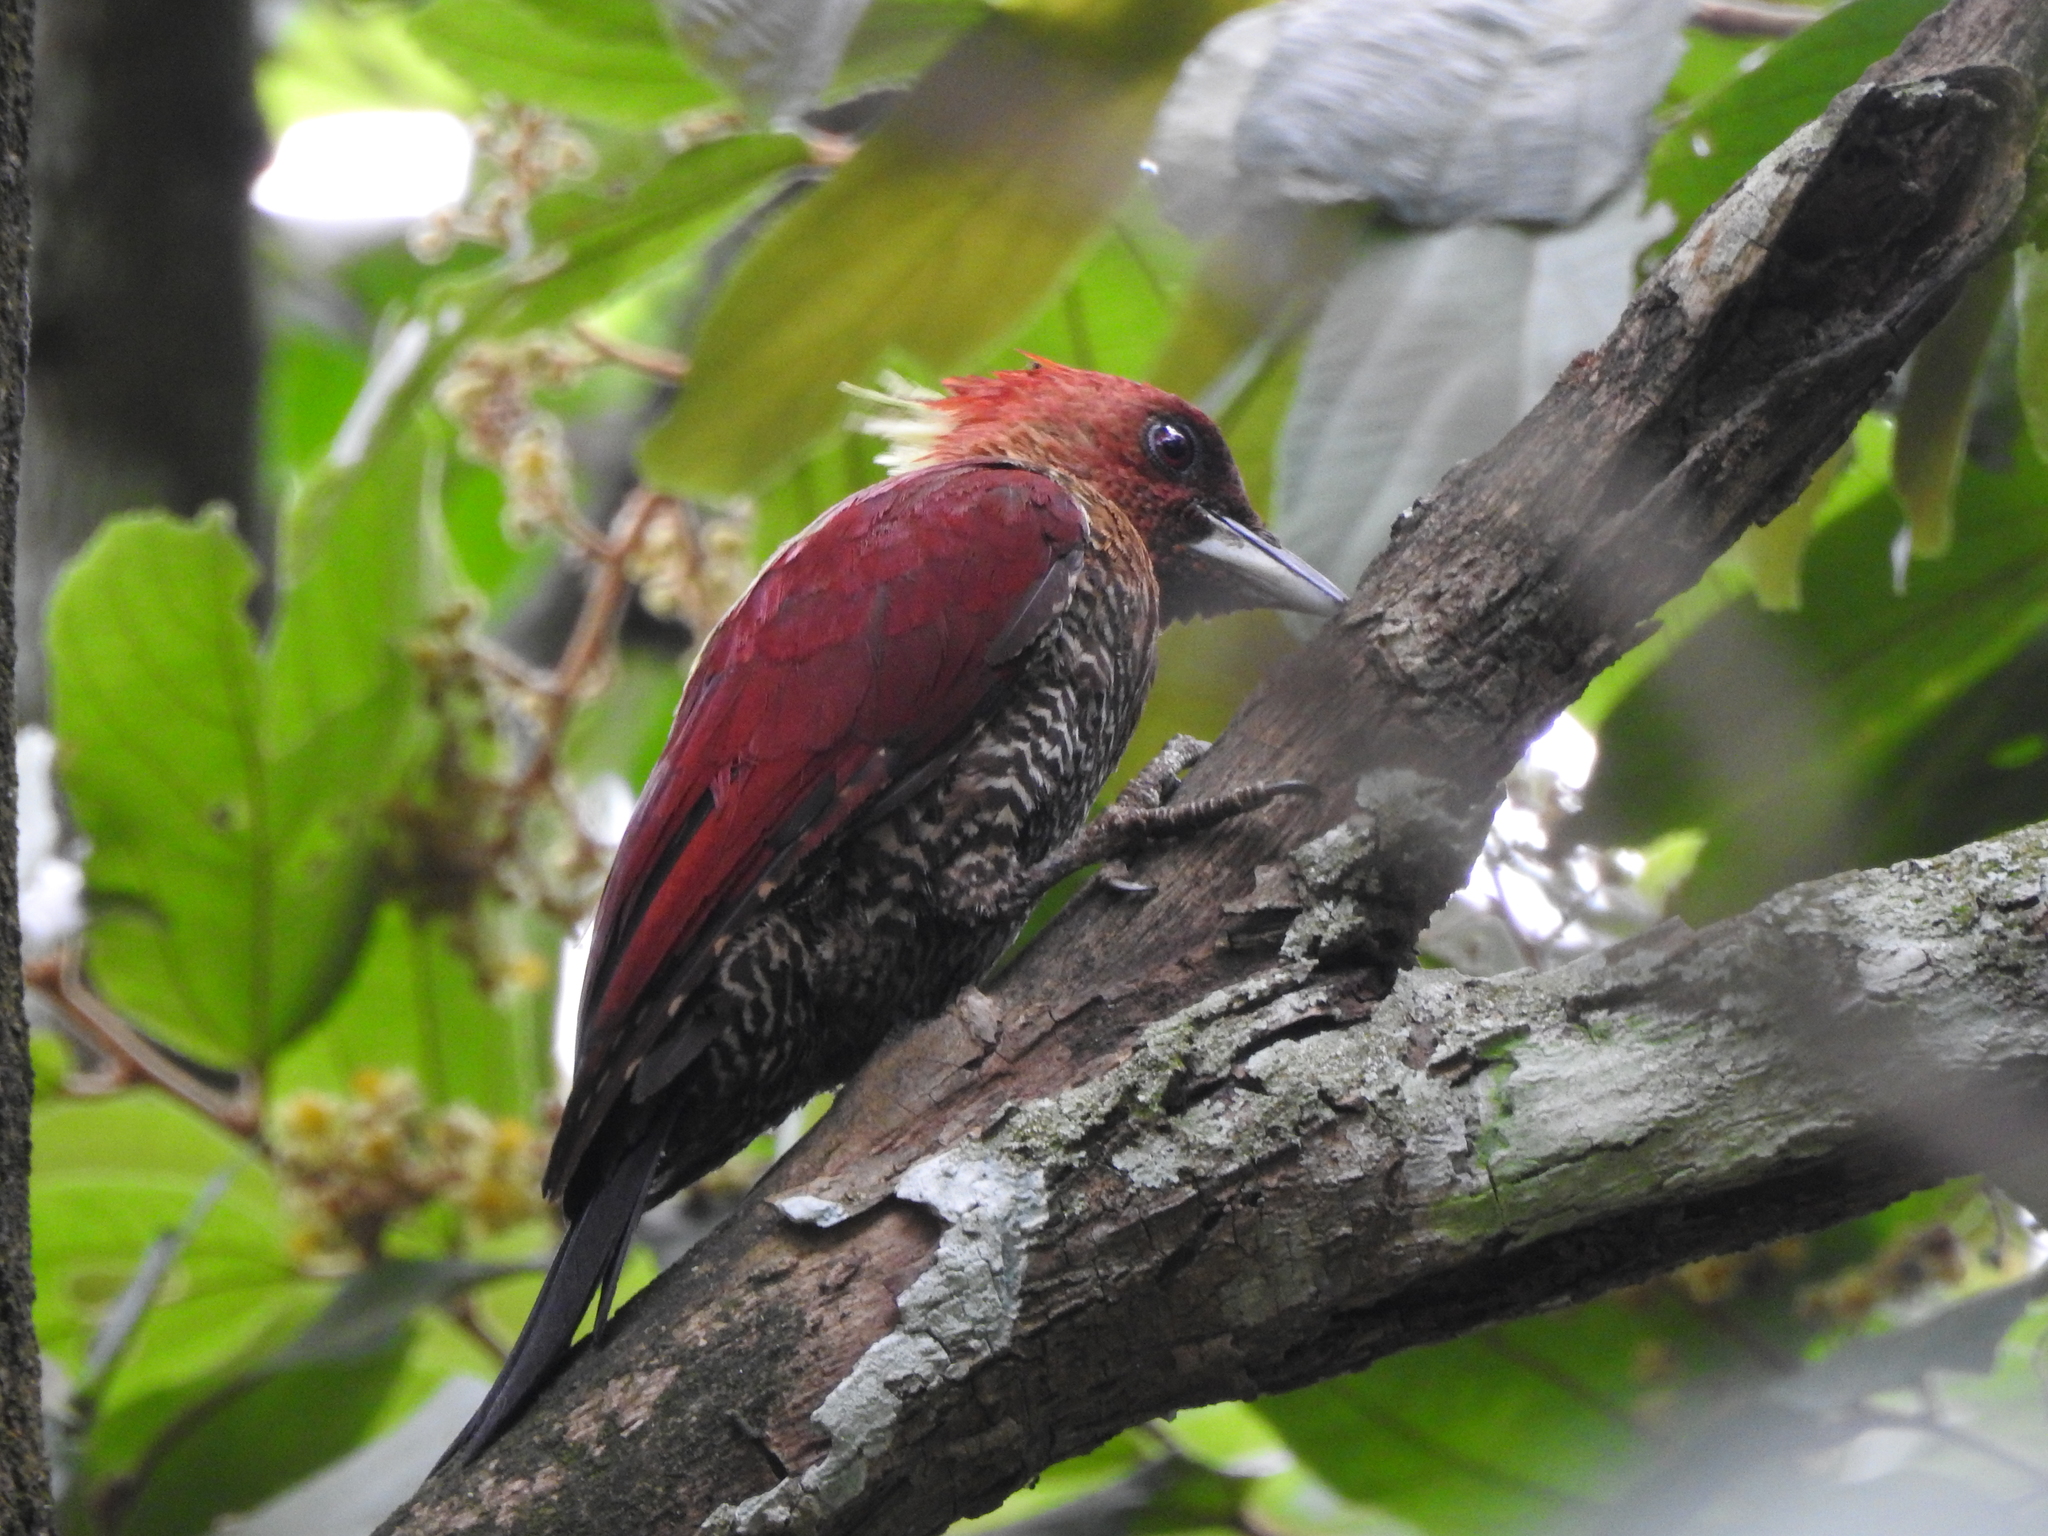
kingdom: Animalia
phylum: Chordata
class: Aves
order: Piciformes
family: Picidae
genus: Chrysophlegma
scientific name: Chrysophlegma miniaceum
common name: Banded woodpecker
